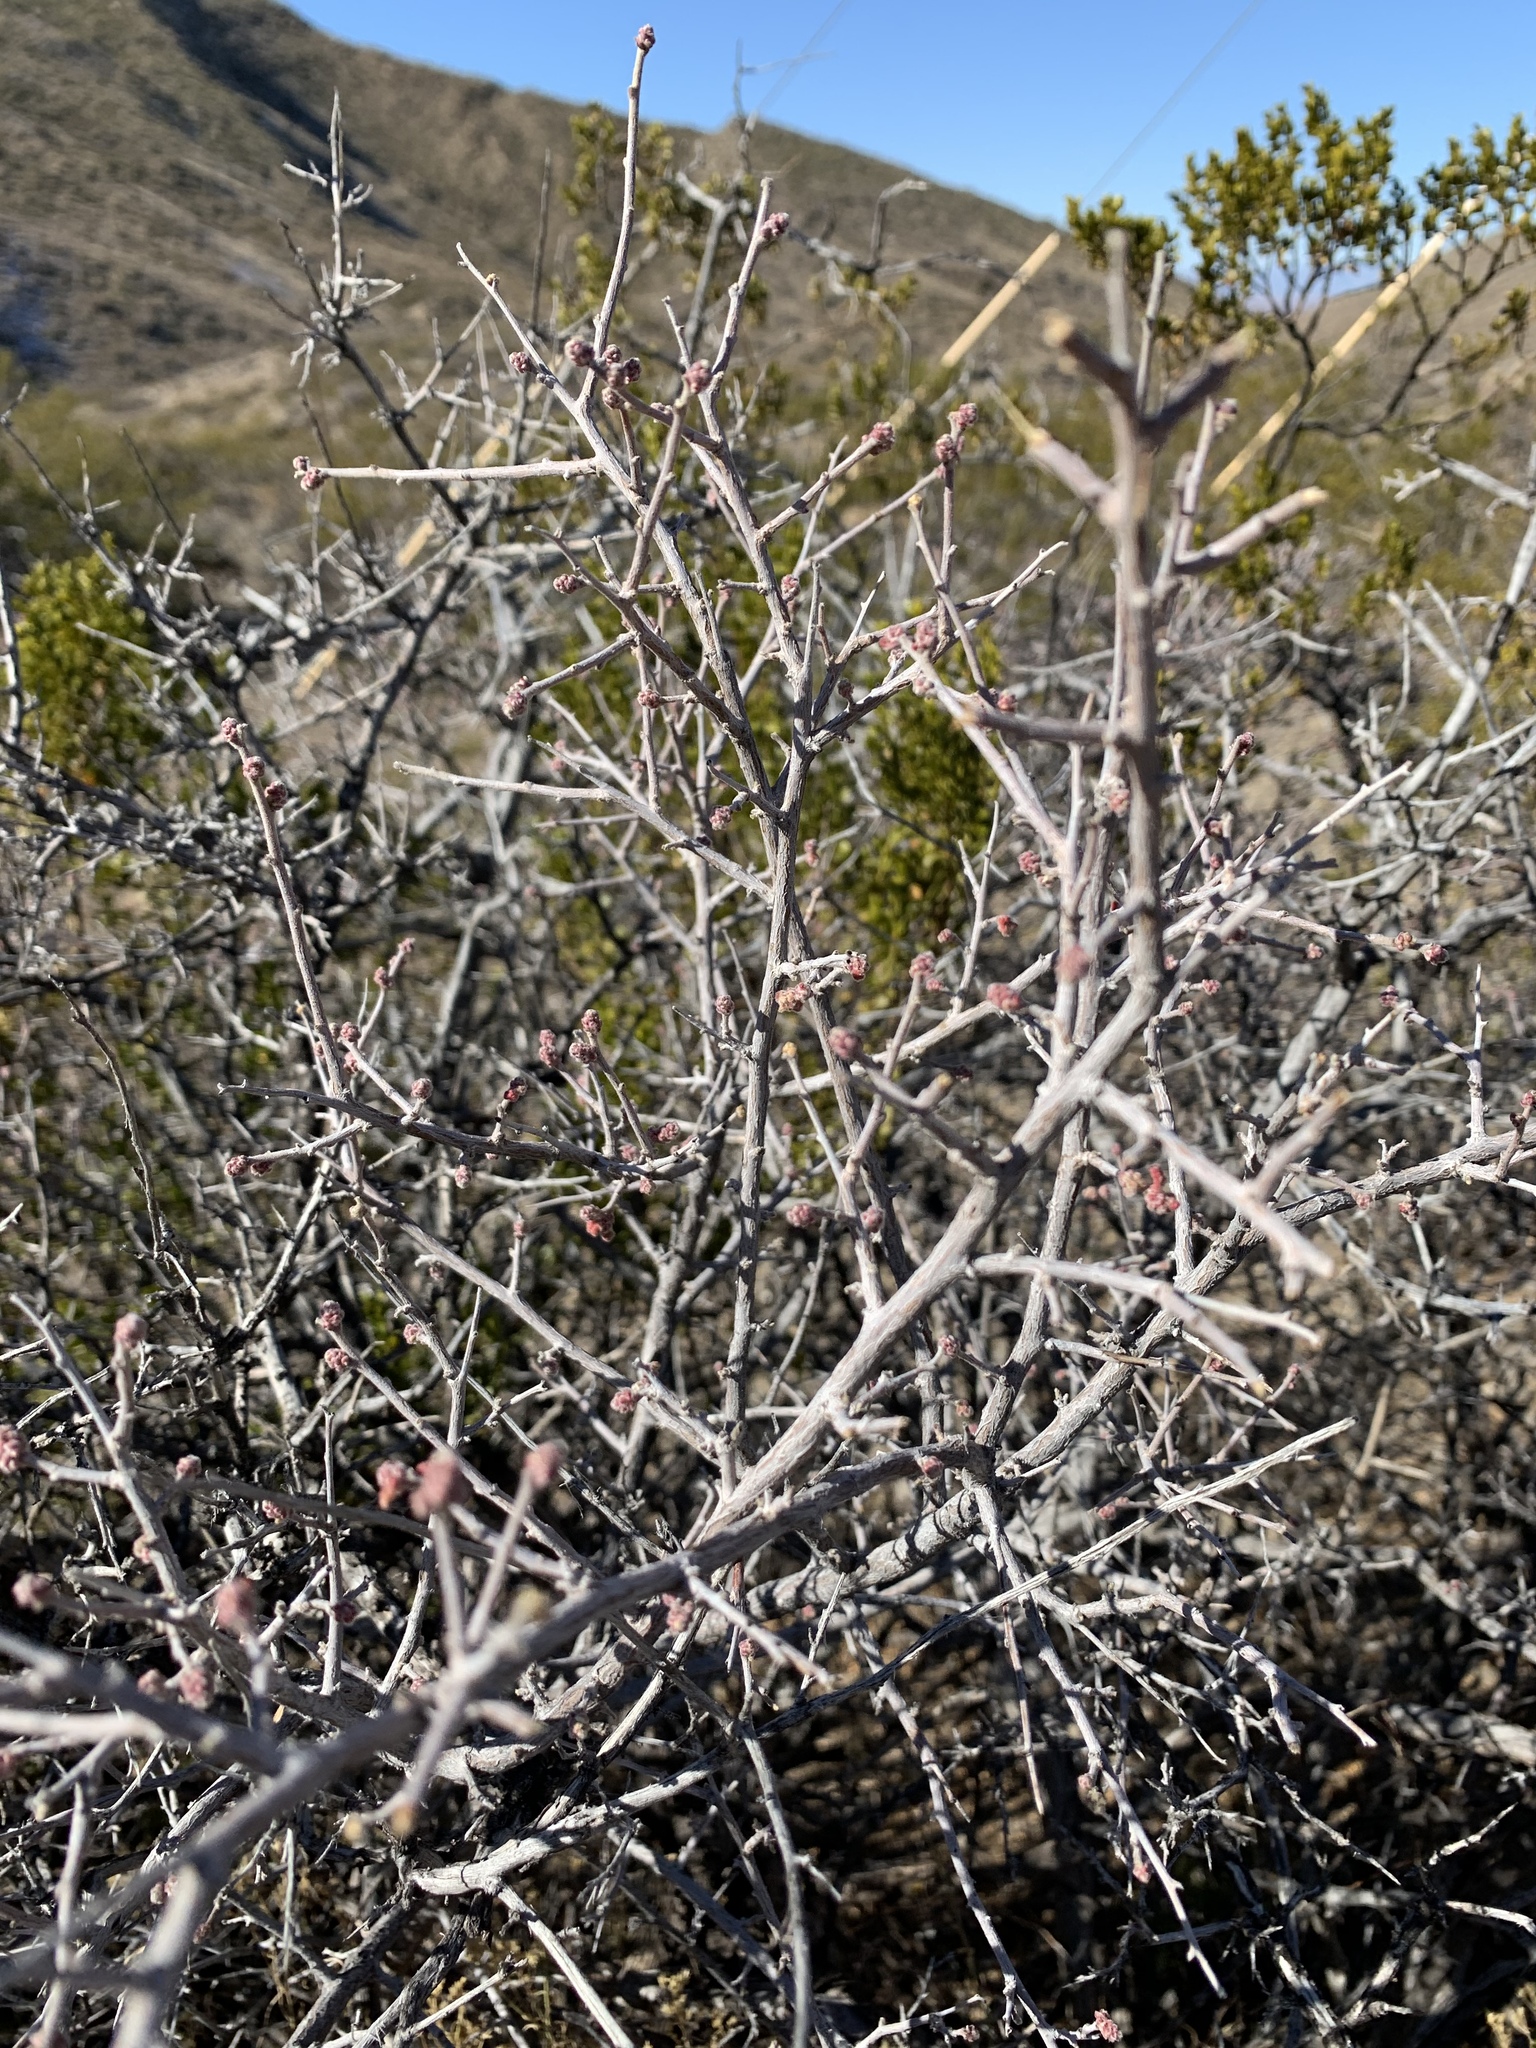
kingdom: Plantae
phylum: Tracheophyta
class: Magnoliopsida
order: Sapindales
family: Anacardiaceae
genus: Rhus
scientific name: Rhus microphylla
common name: Desert sumac
